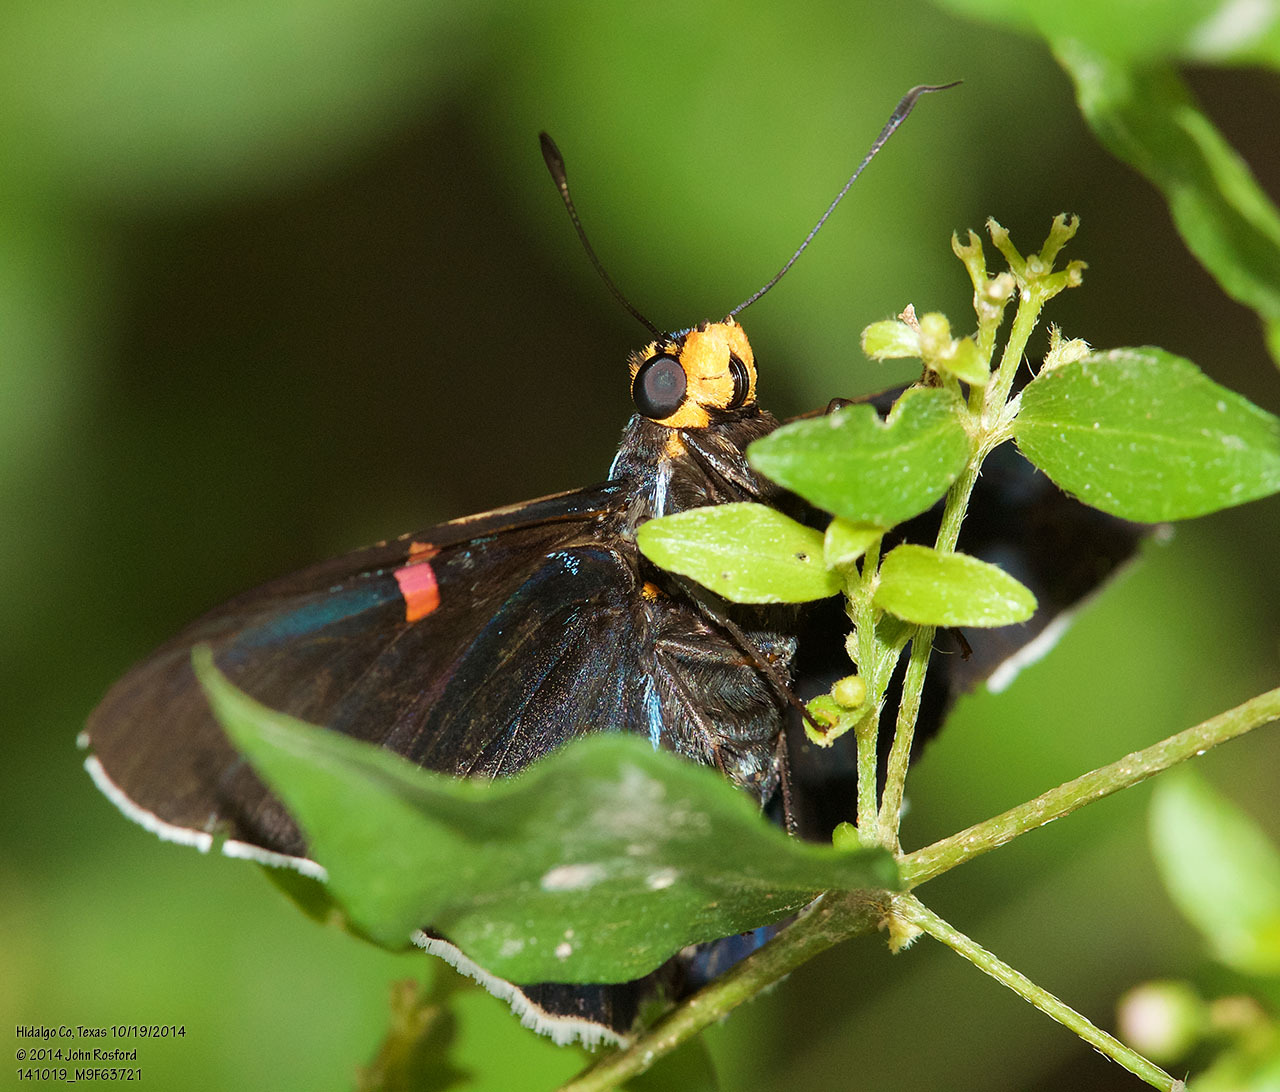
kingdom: Animalia
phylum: Arthropoda
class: Insecta
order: Lepidoptera
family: Hesperiidae
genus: Phocides
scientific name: Phocides lilea
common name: Guava skipper
